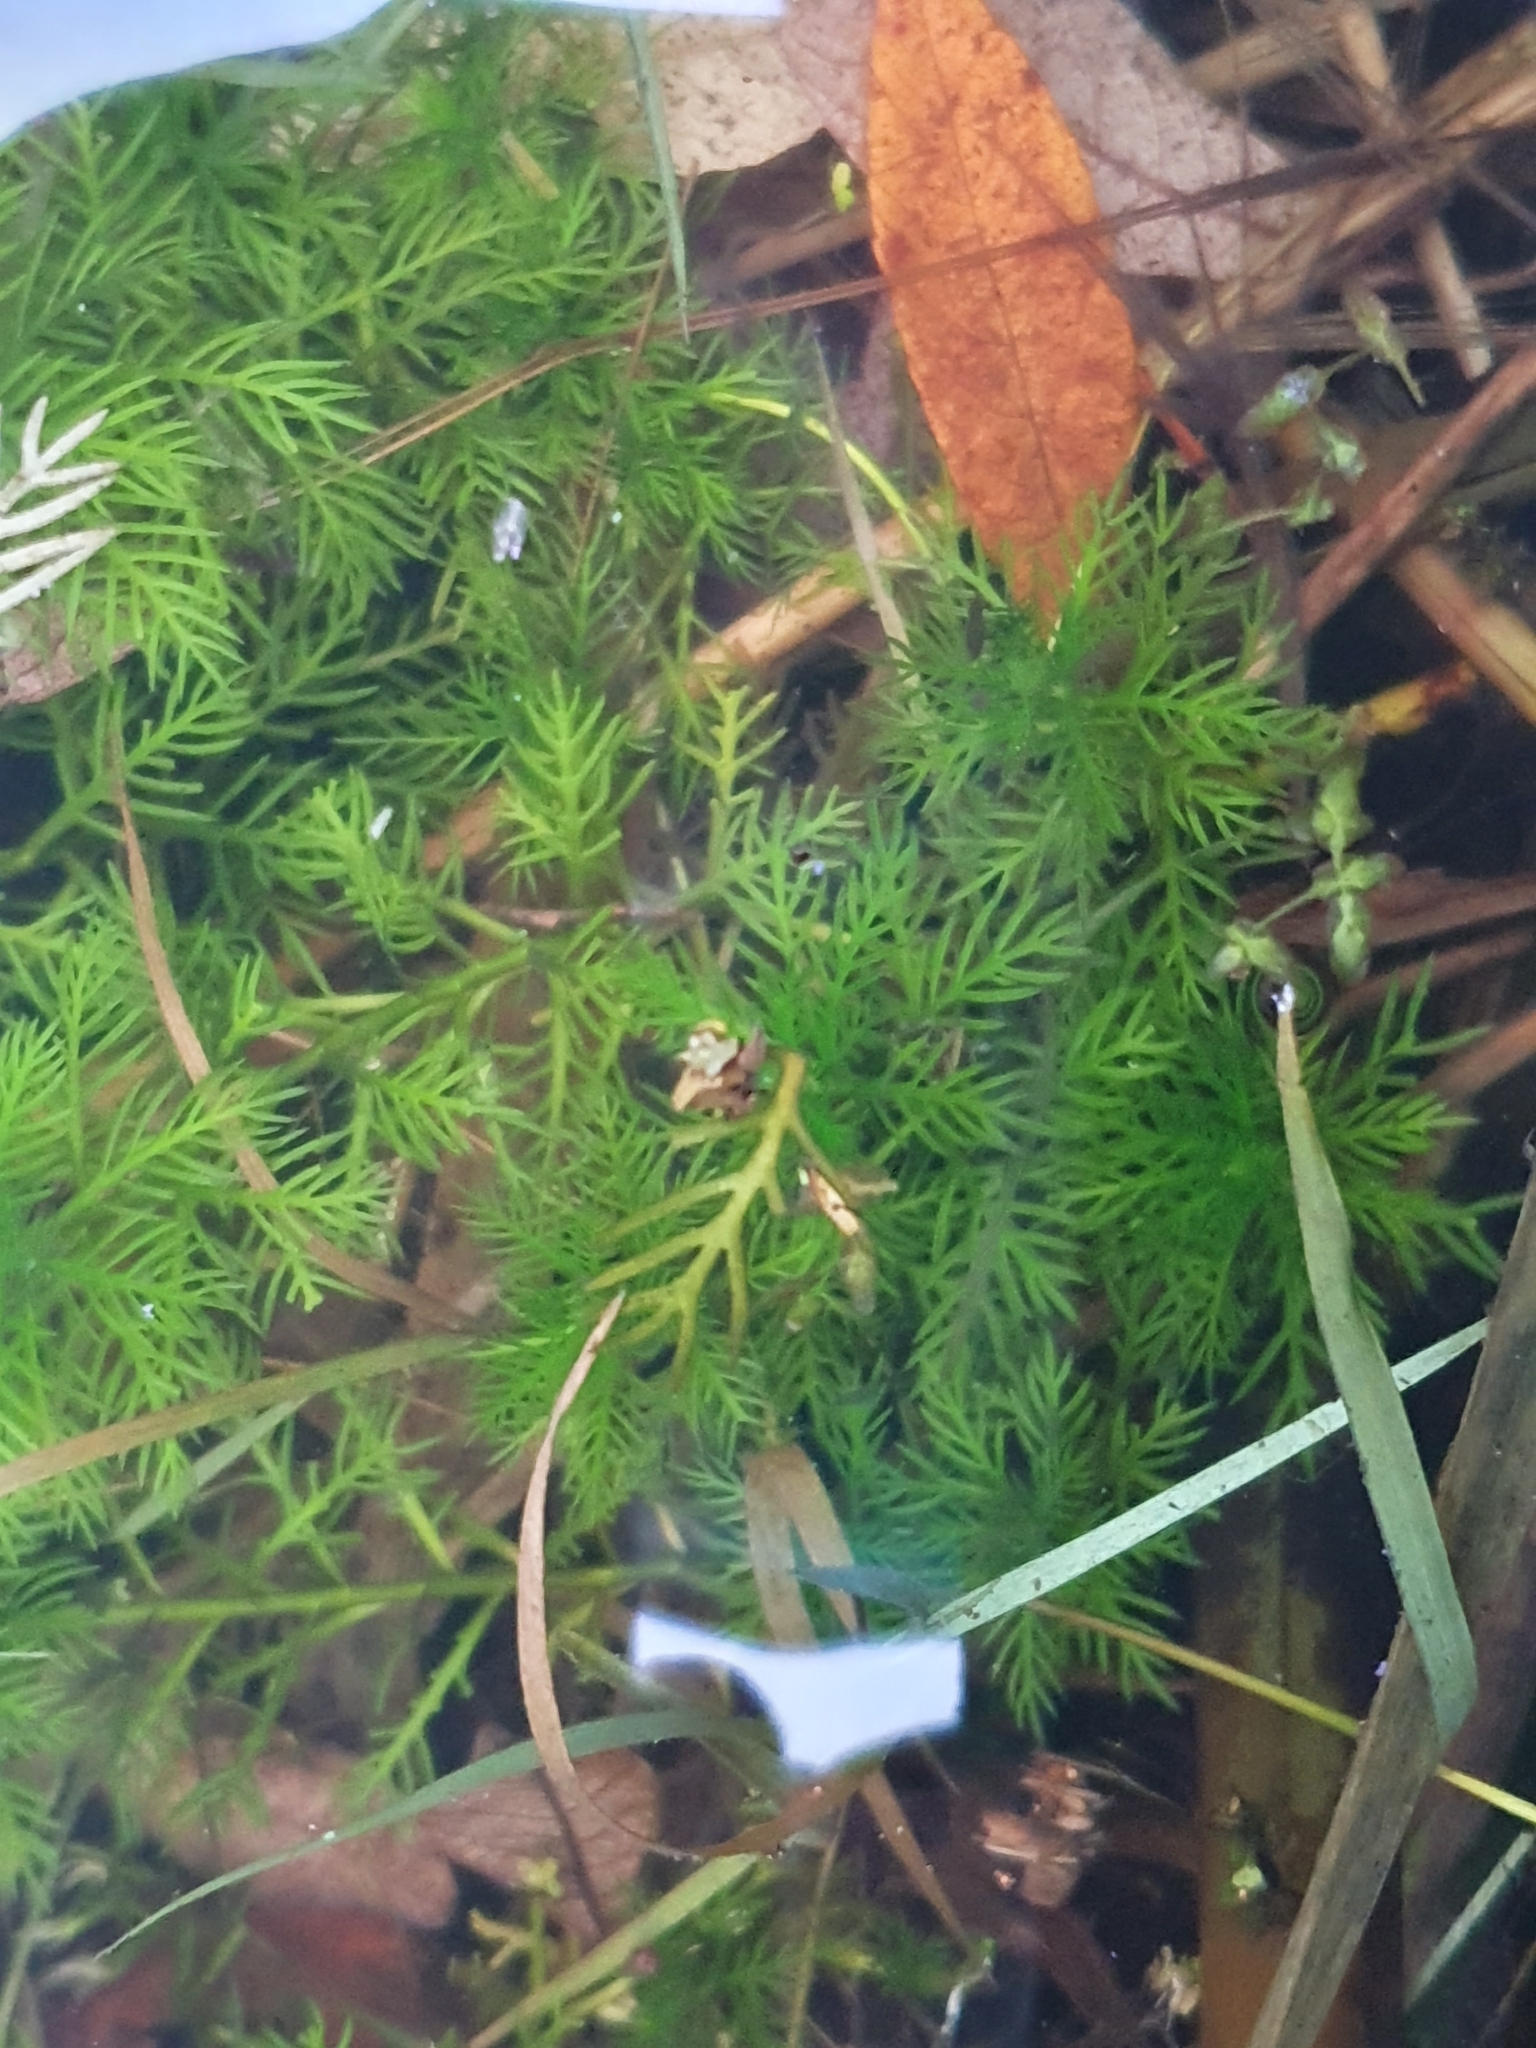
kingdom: Plantae
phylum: Tracheophyta
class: Magnoliopsida
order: Ericales
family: Primulaceae
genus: Hottonia
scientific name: Hottonia palustris
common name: Water-violet
